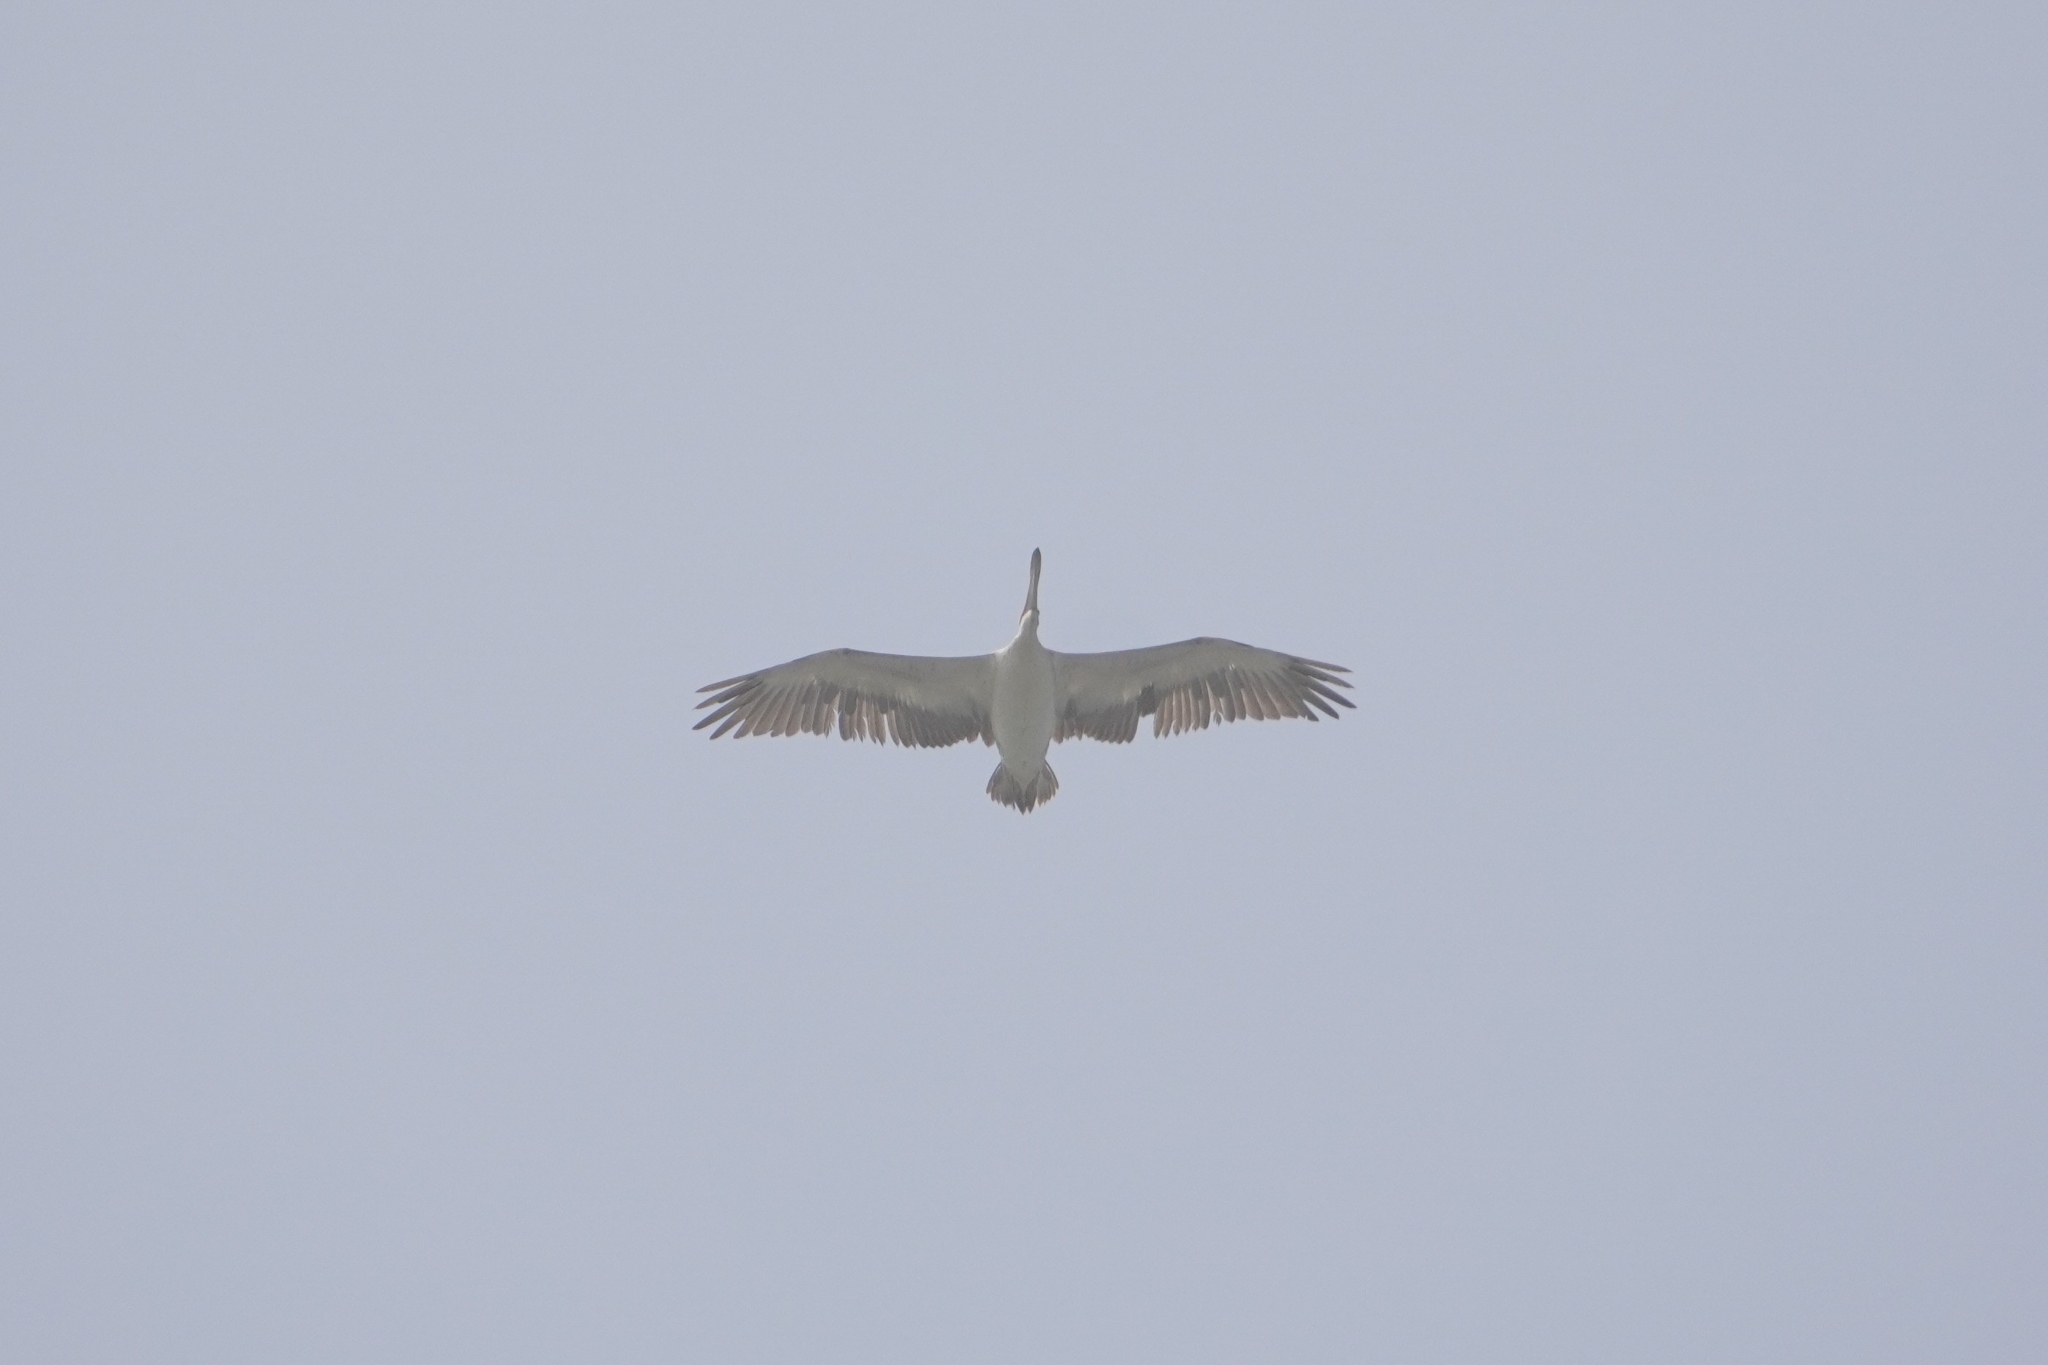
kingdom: Animalia
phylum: Chordata
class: Aves
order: Pelecaniformes
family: Pelecanidae
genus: Pelecanus
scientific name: Pelecanus rufescens
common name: Pink-backed pelican
